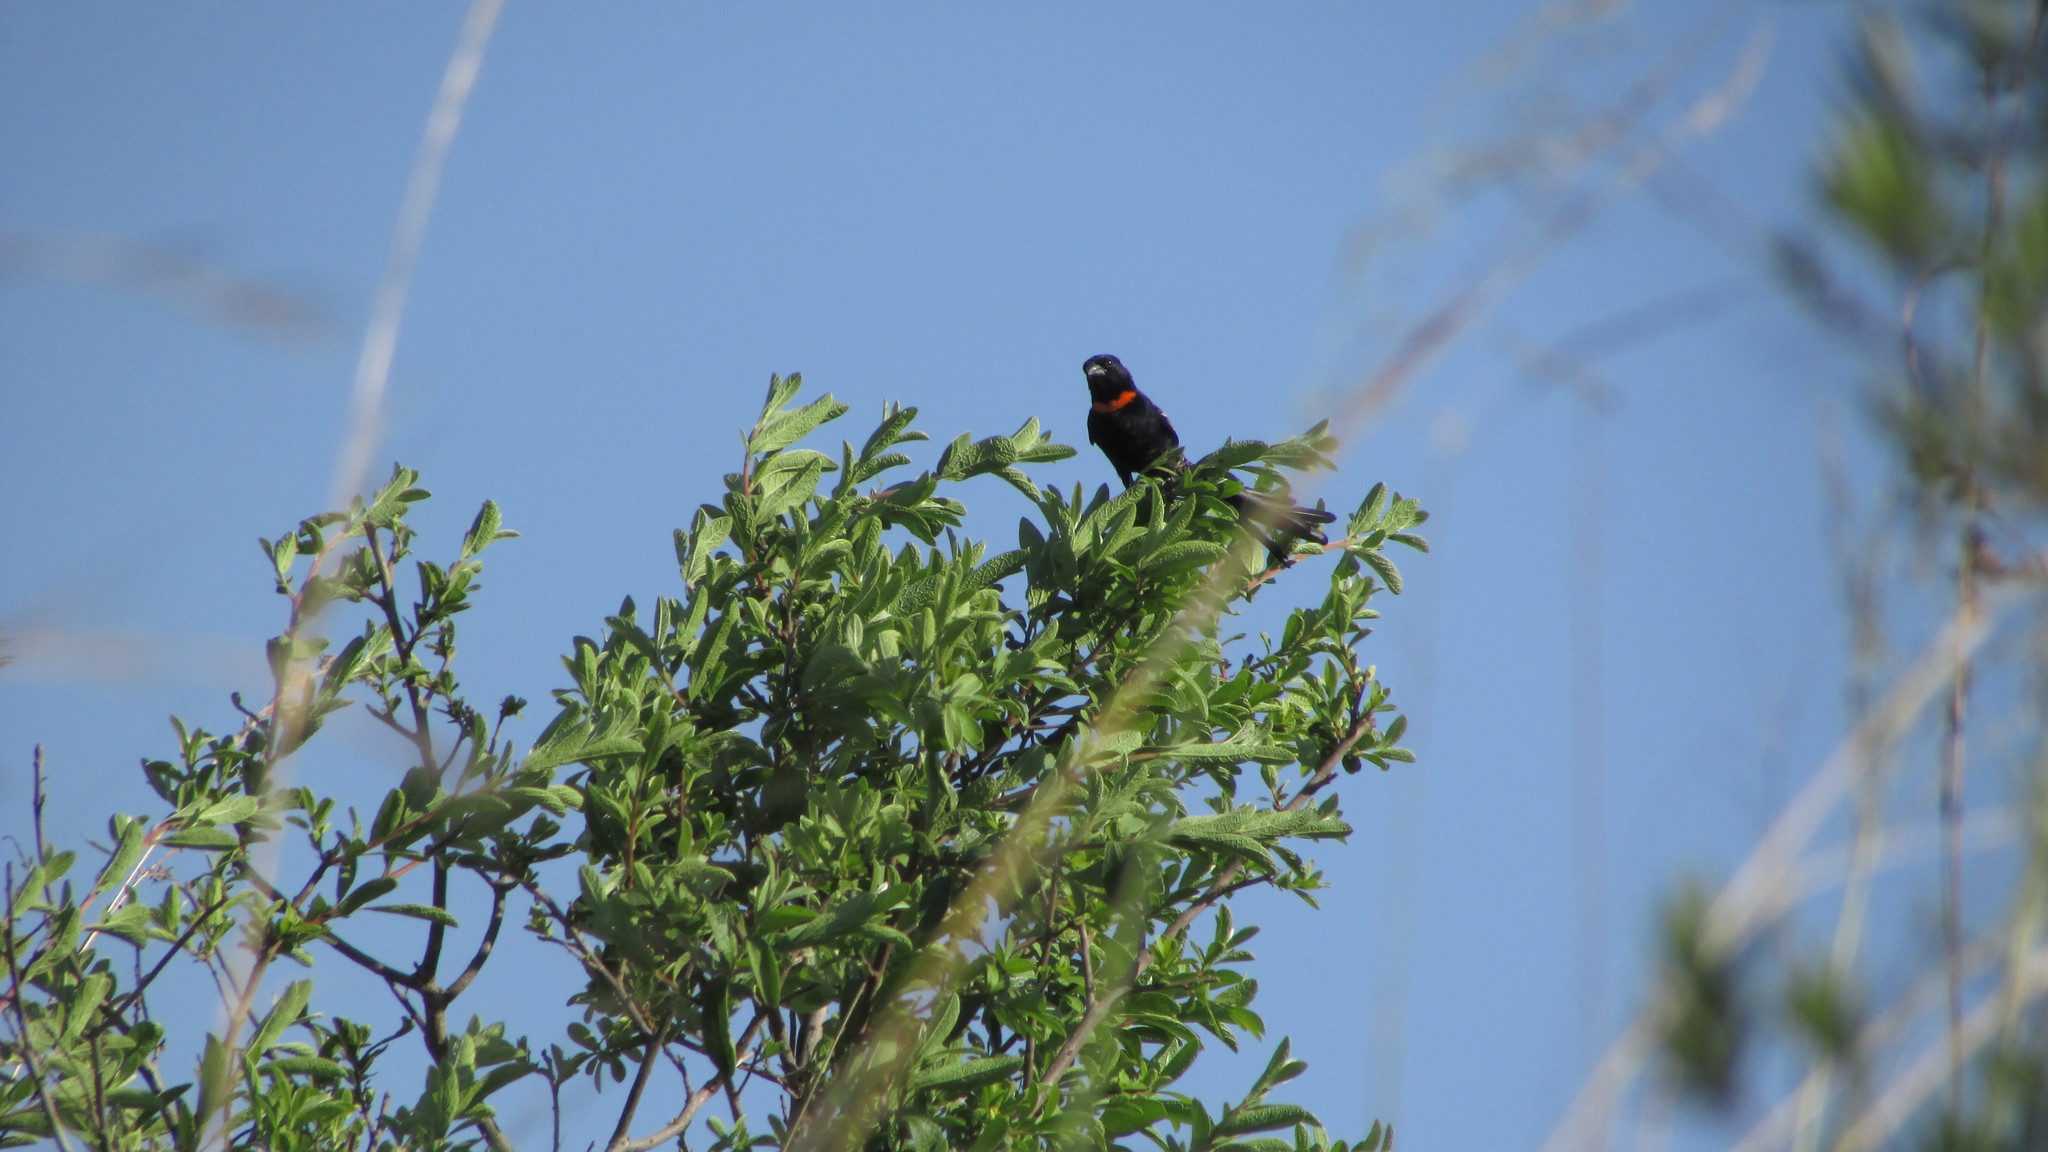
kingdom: Animalia
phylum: Chordata
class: Aves
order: Passeriformes
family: Ploceidae
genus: Euplectes
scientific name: Euplectes ardens
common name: Red-collared widowbird
